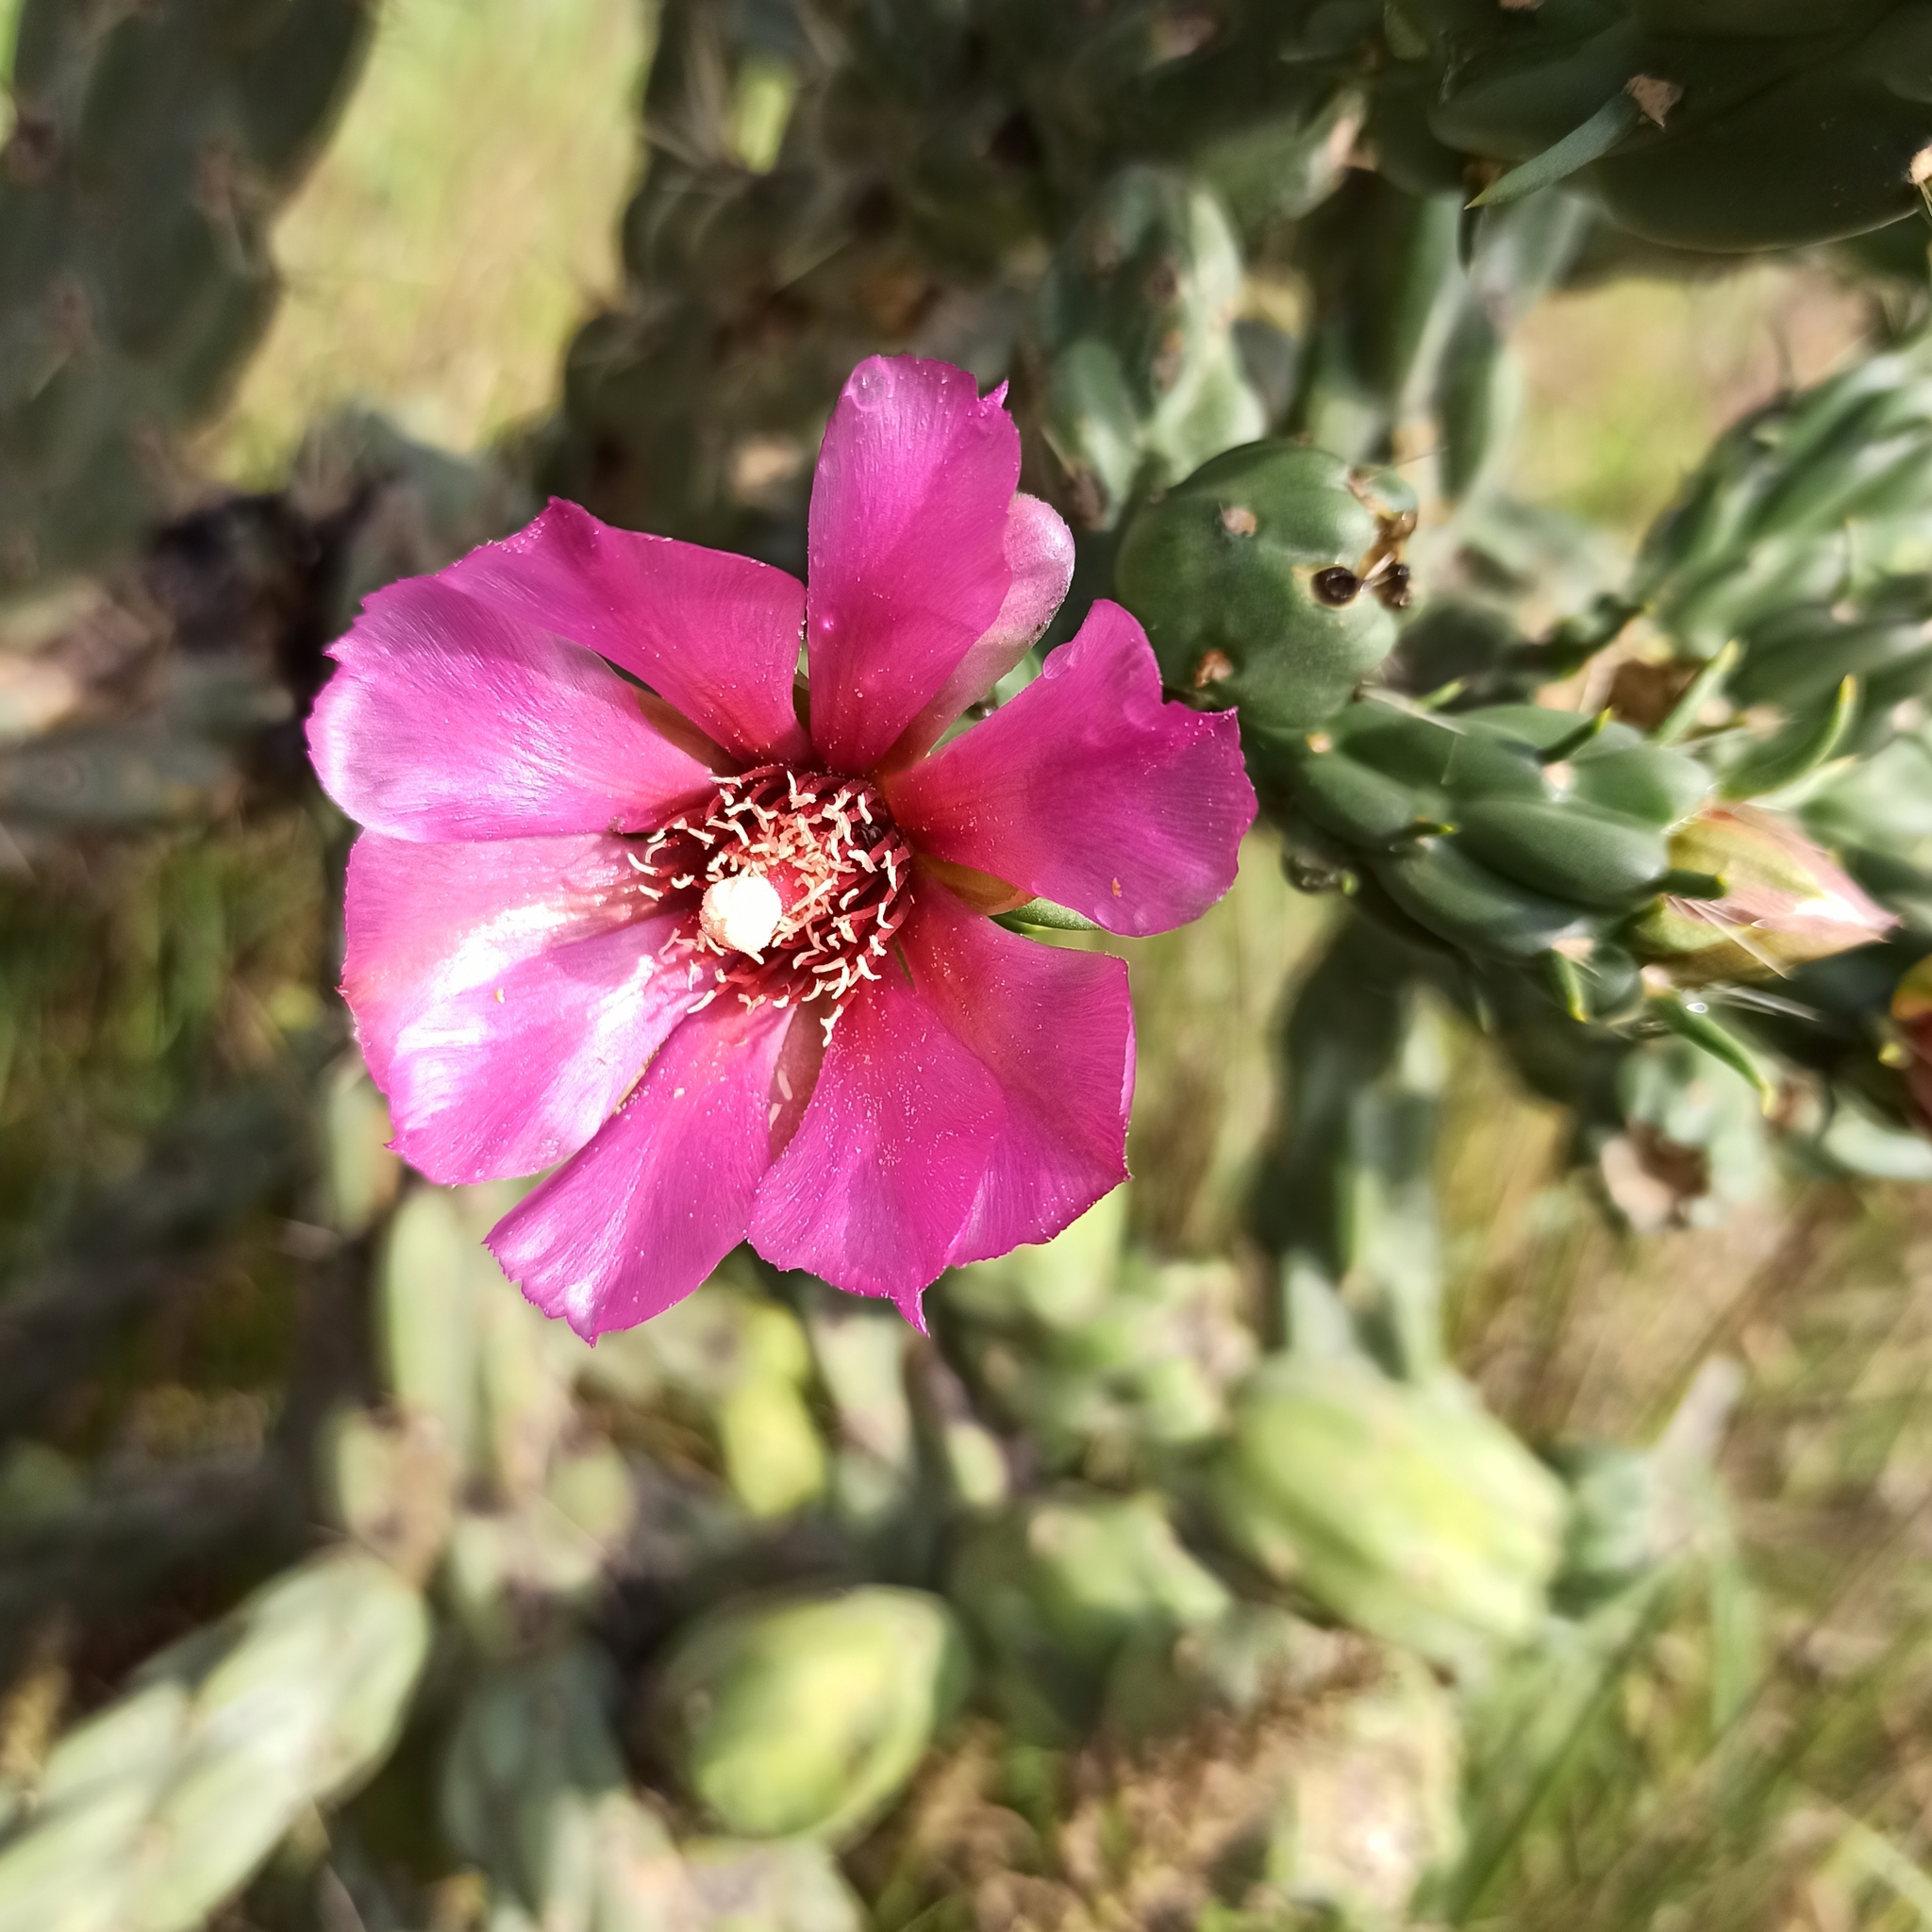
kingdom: Plantae
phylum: Tracheophyta
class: Magnoliopsida
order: Caryophyllales
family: Cactaceae
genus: Cylindropuntia
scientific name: Cylindropuntia imbricata
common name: Candelabrum cactus
